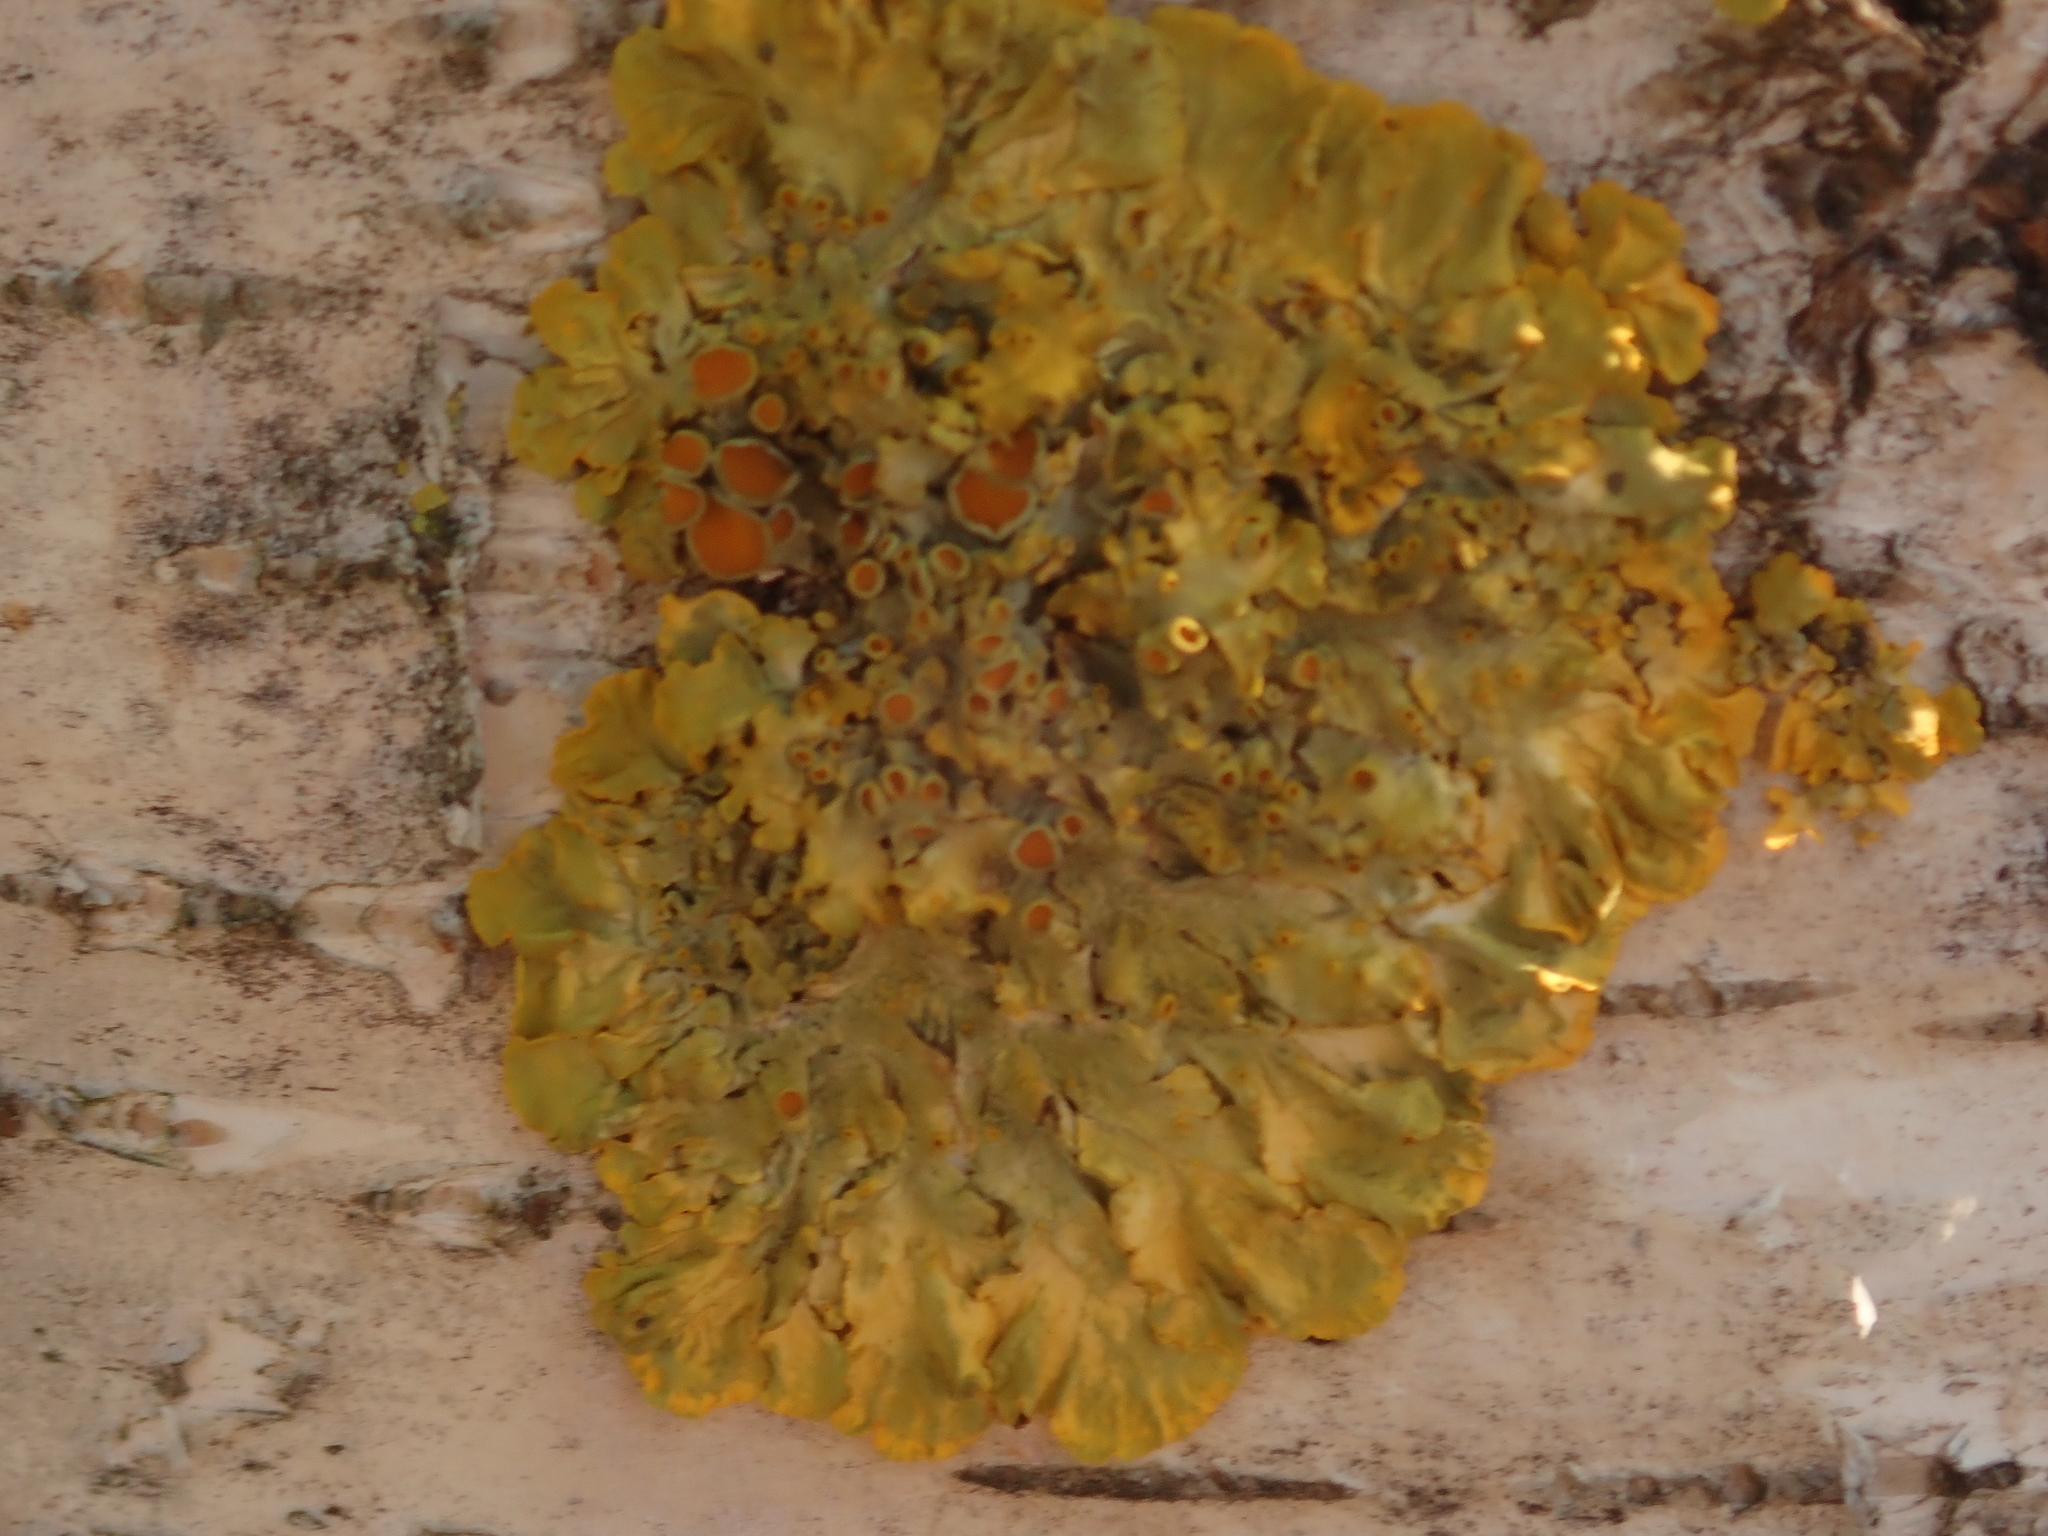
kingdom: Fungi
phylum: Ascomycota
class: Lecanoromycetes
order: Teloschistales
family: Teloschistaceae
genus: Xanthoria
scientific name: Xanthoria parietina
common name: Common orange lichen
